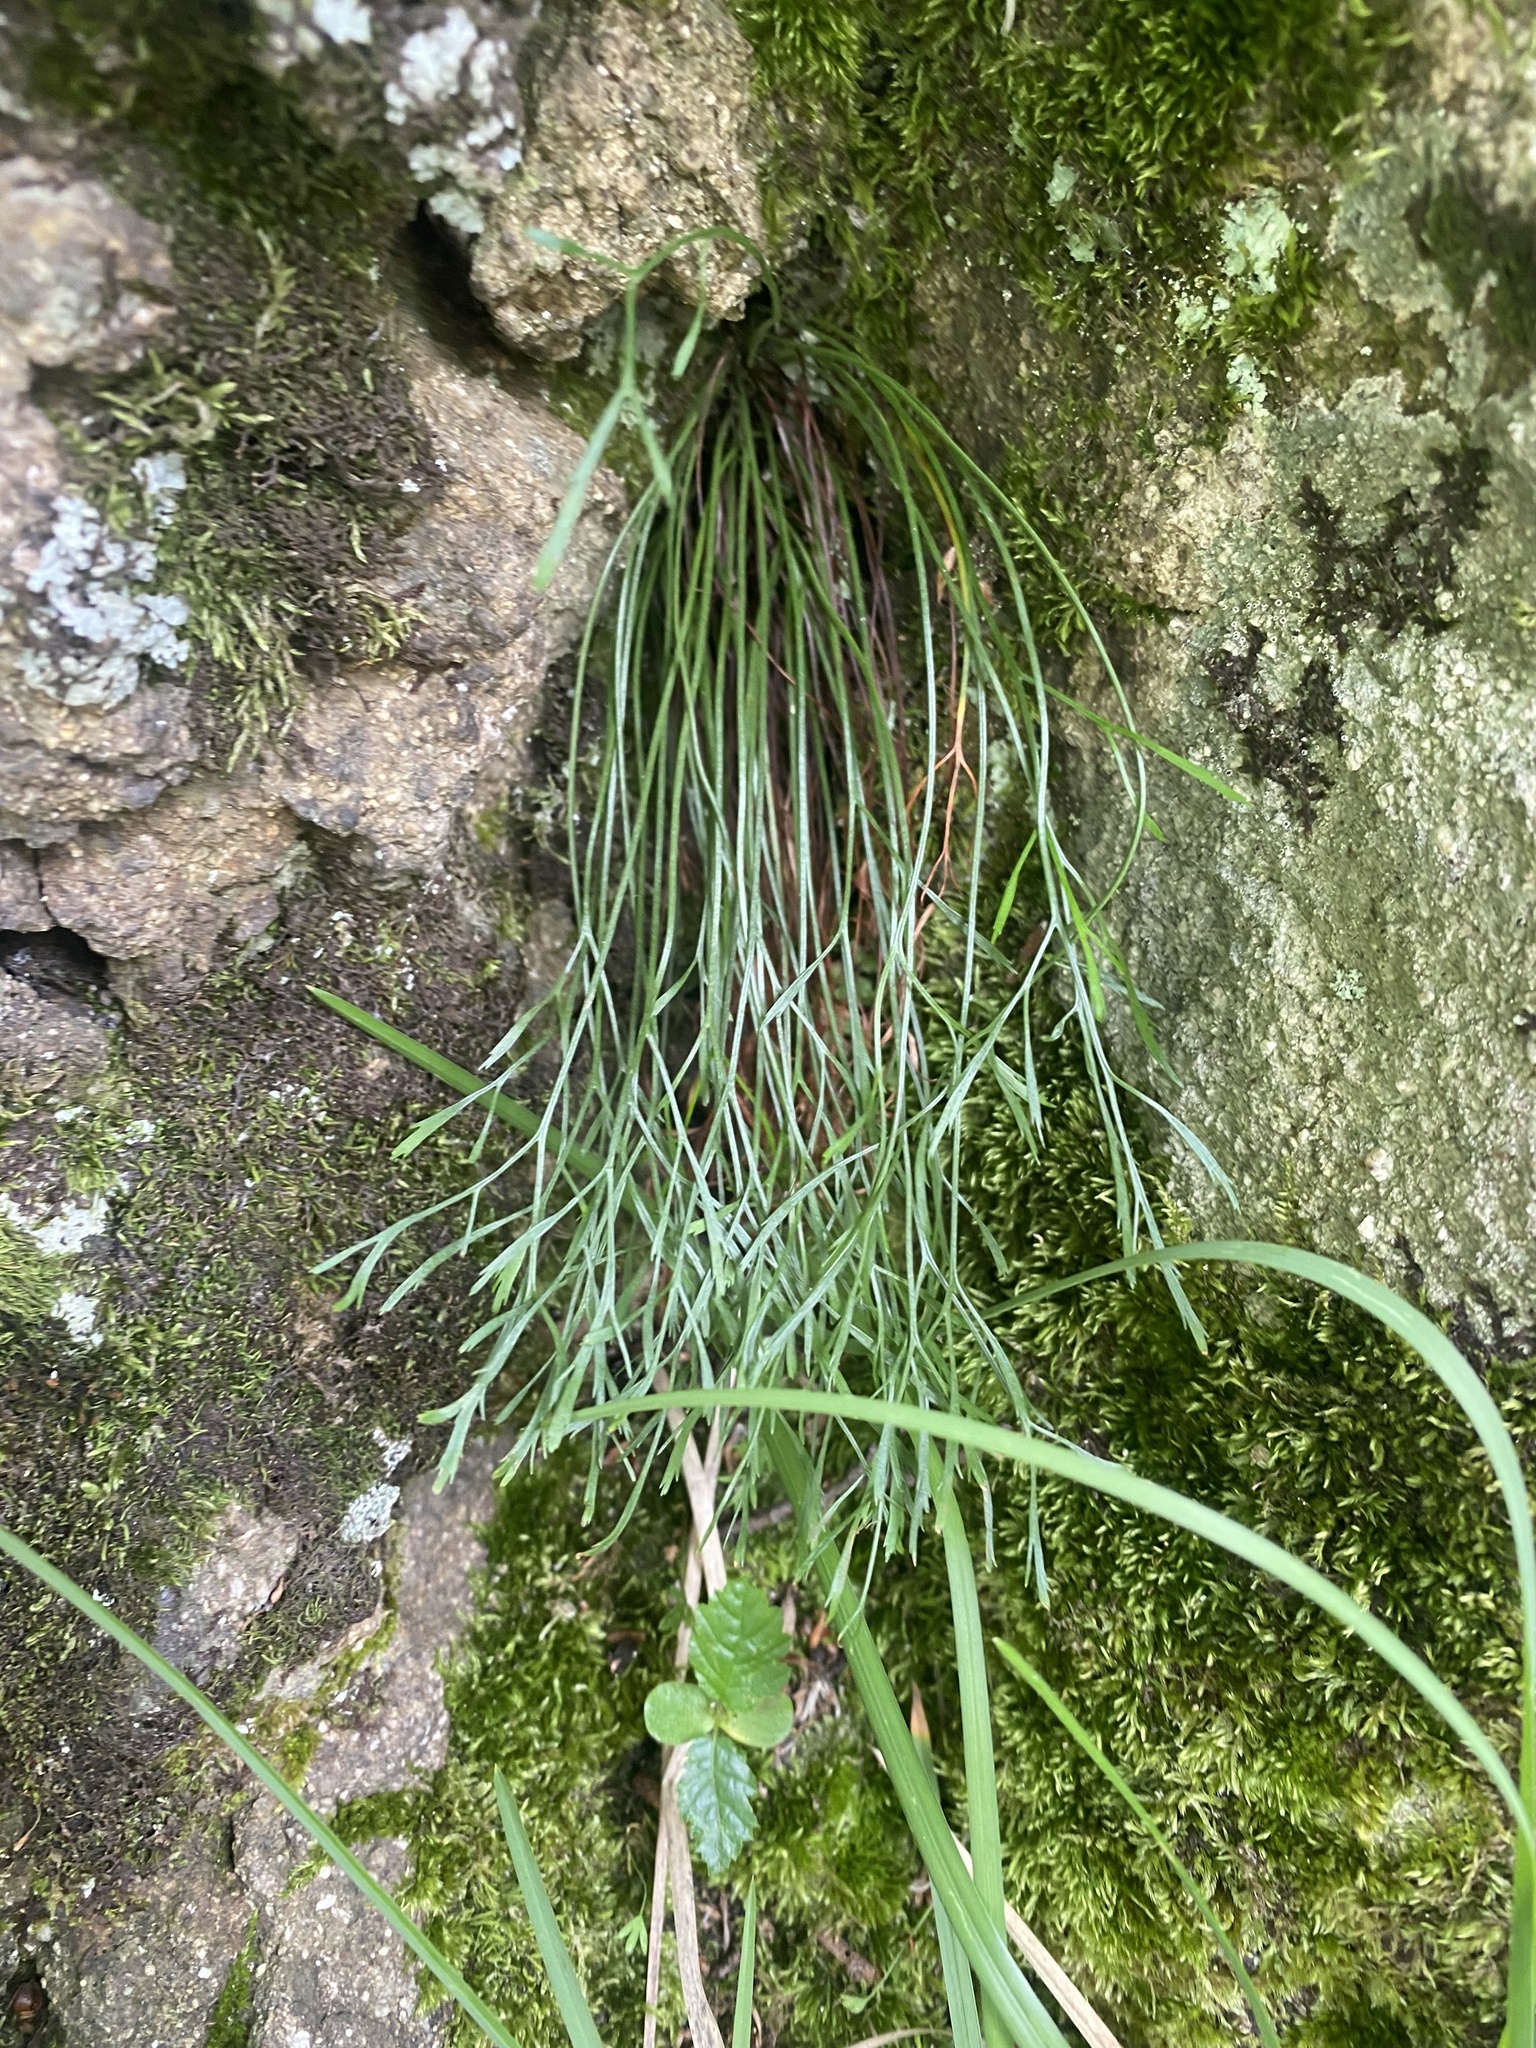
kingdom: Plantae
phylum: Tracheophyta
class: Polypodiopsida
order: Polypodiales
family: Aspleniaceae
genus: Asplenium
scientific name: Asplenium septentrionale
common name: Forked spleenwort
